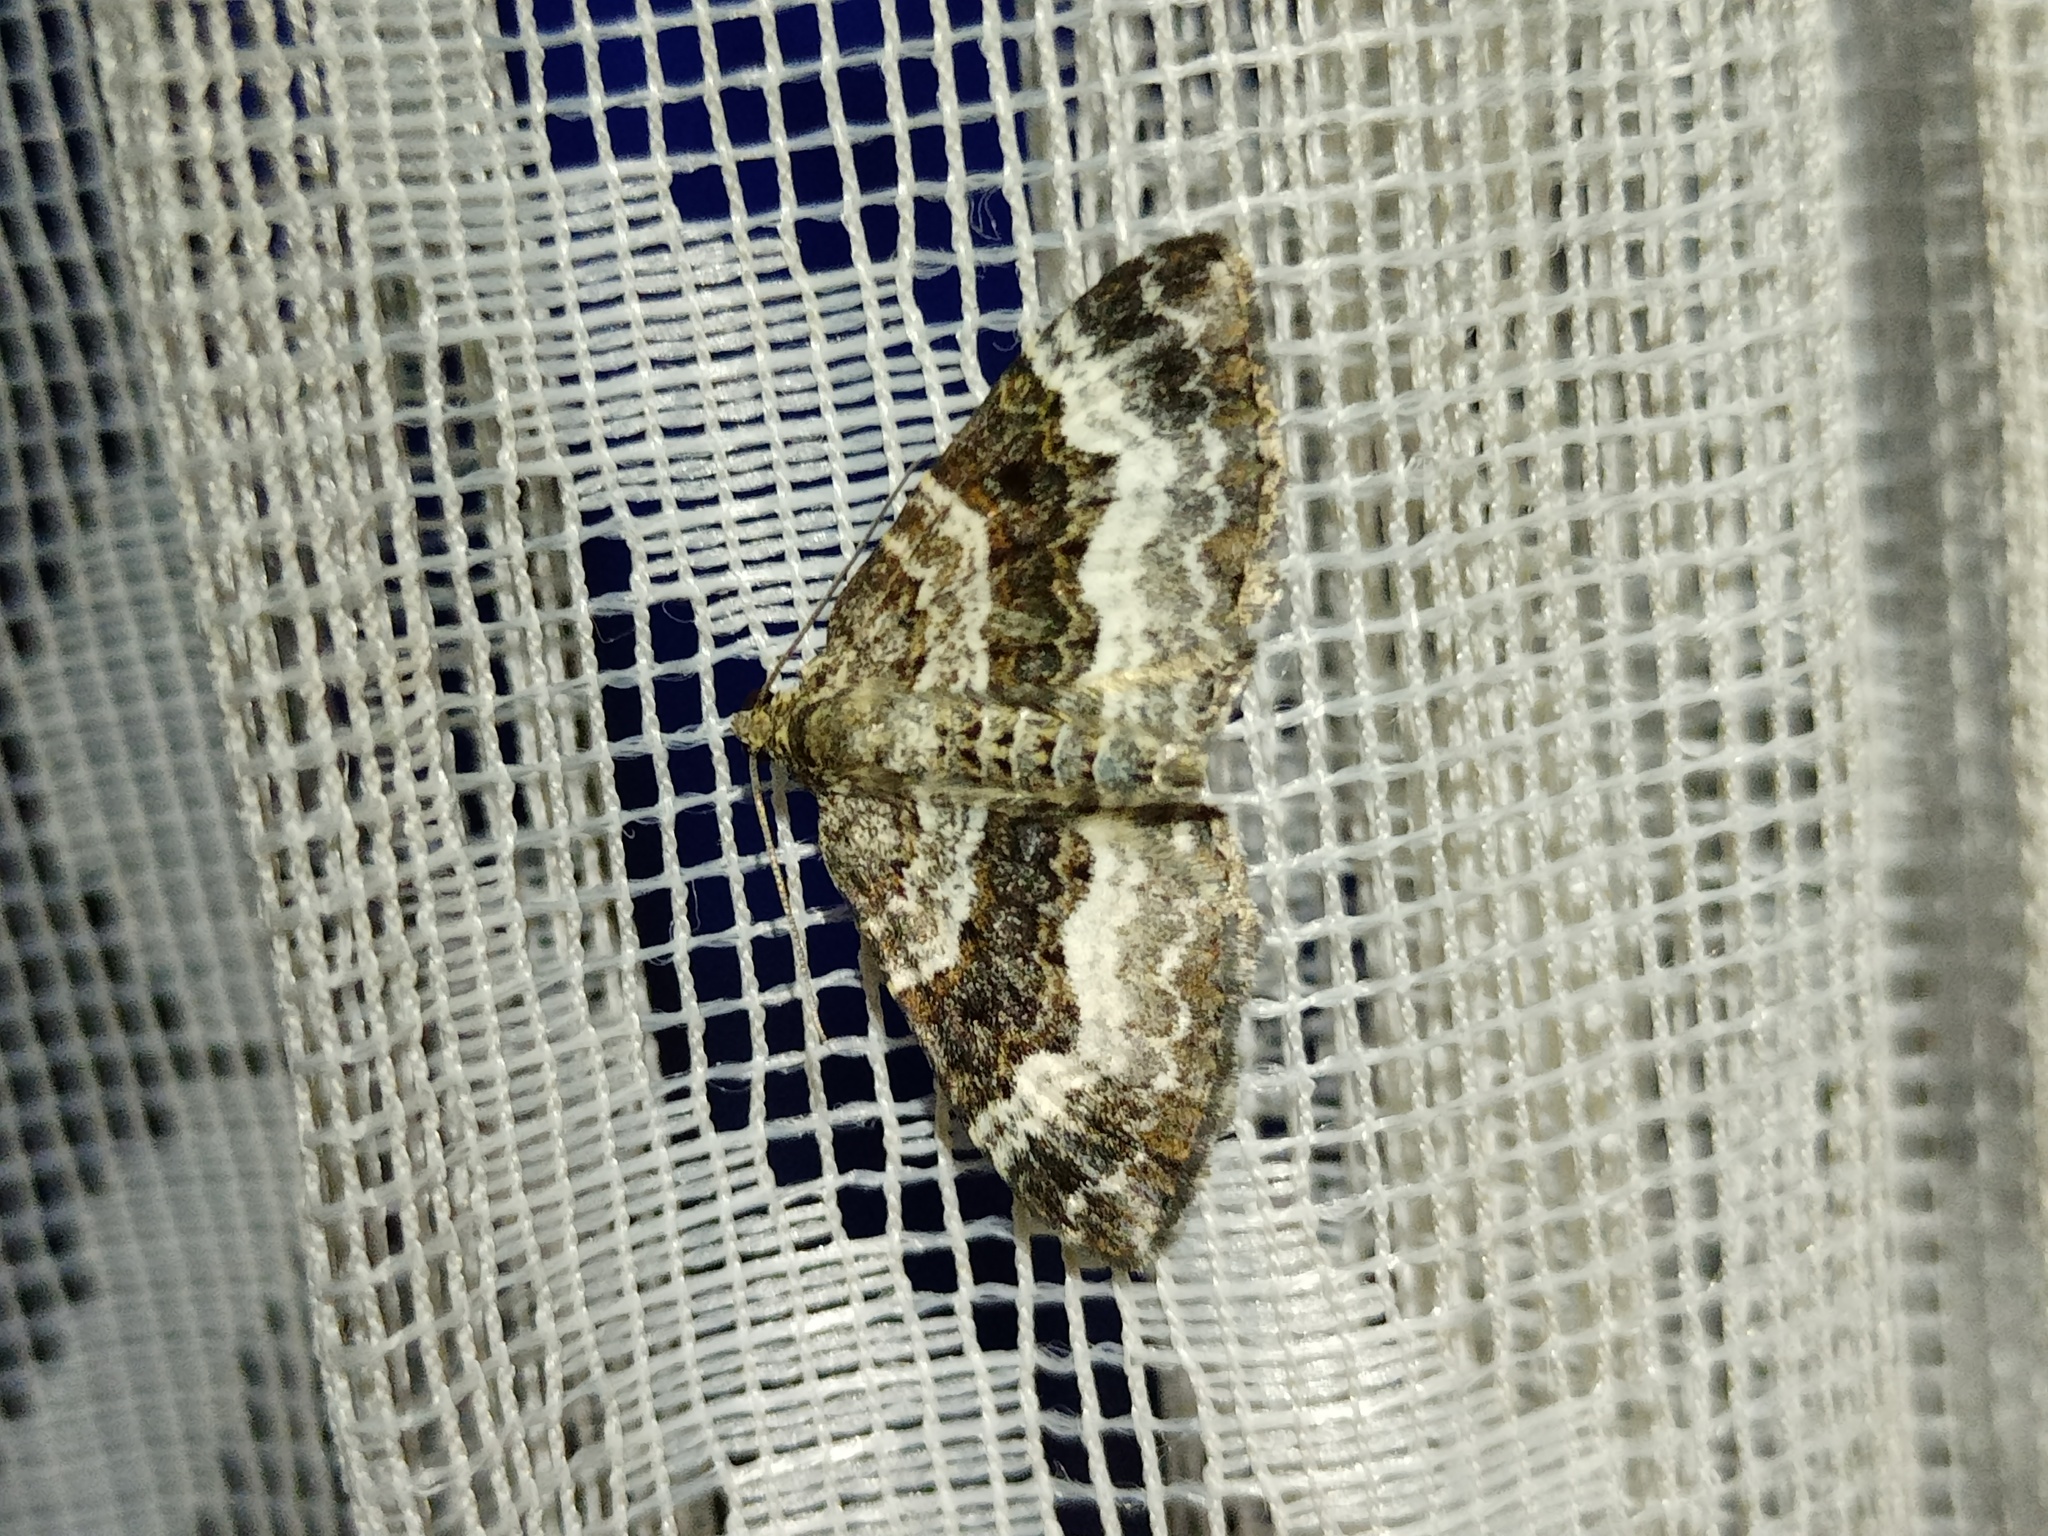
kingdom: Animalia
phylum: Arthropoda
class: Insecta
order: Lepidoptera
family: Geometridae
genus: Epirrhoe
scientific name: Epirrhoe alternata
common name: Common carpet
